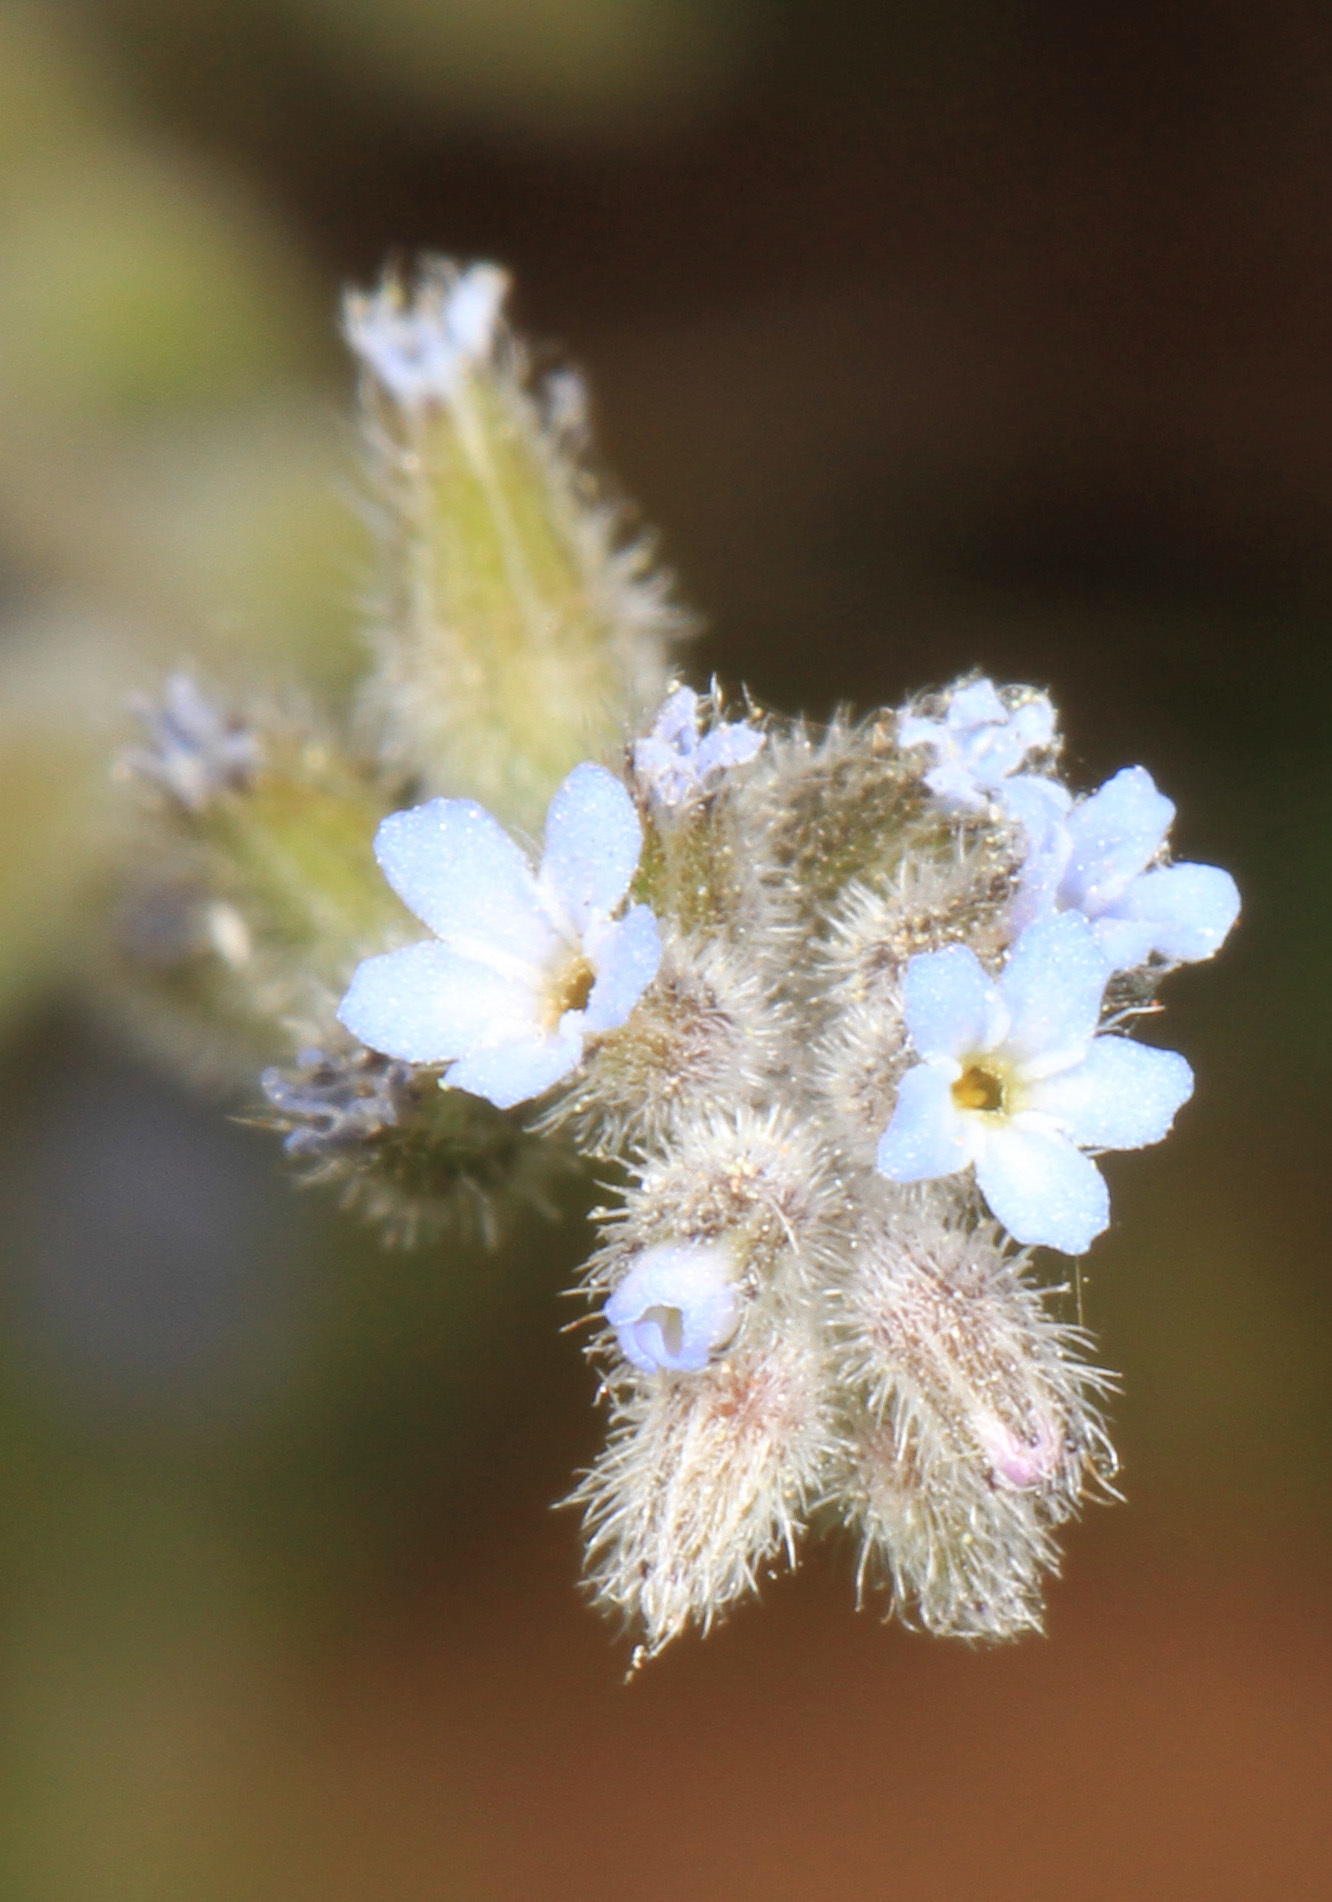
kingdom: Plantae
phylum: Tracheophyta
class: Magnoliopsida
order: Boraginales
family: Boraginaceae
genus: Myosotis
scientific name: Myosotis stricta
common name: Strict forget-me-not
